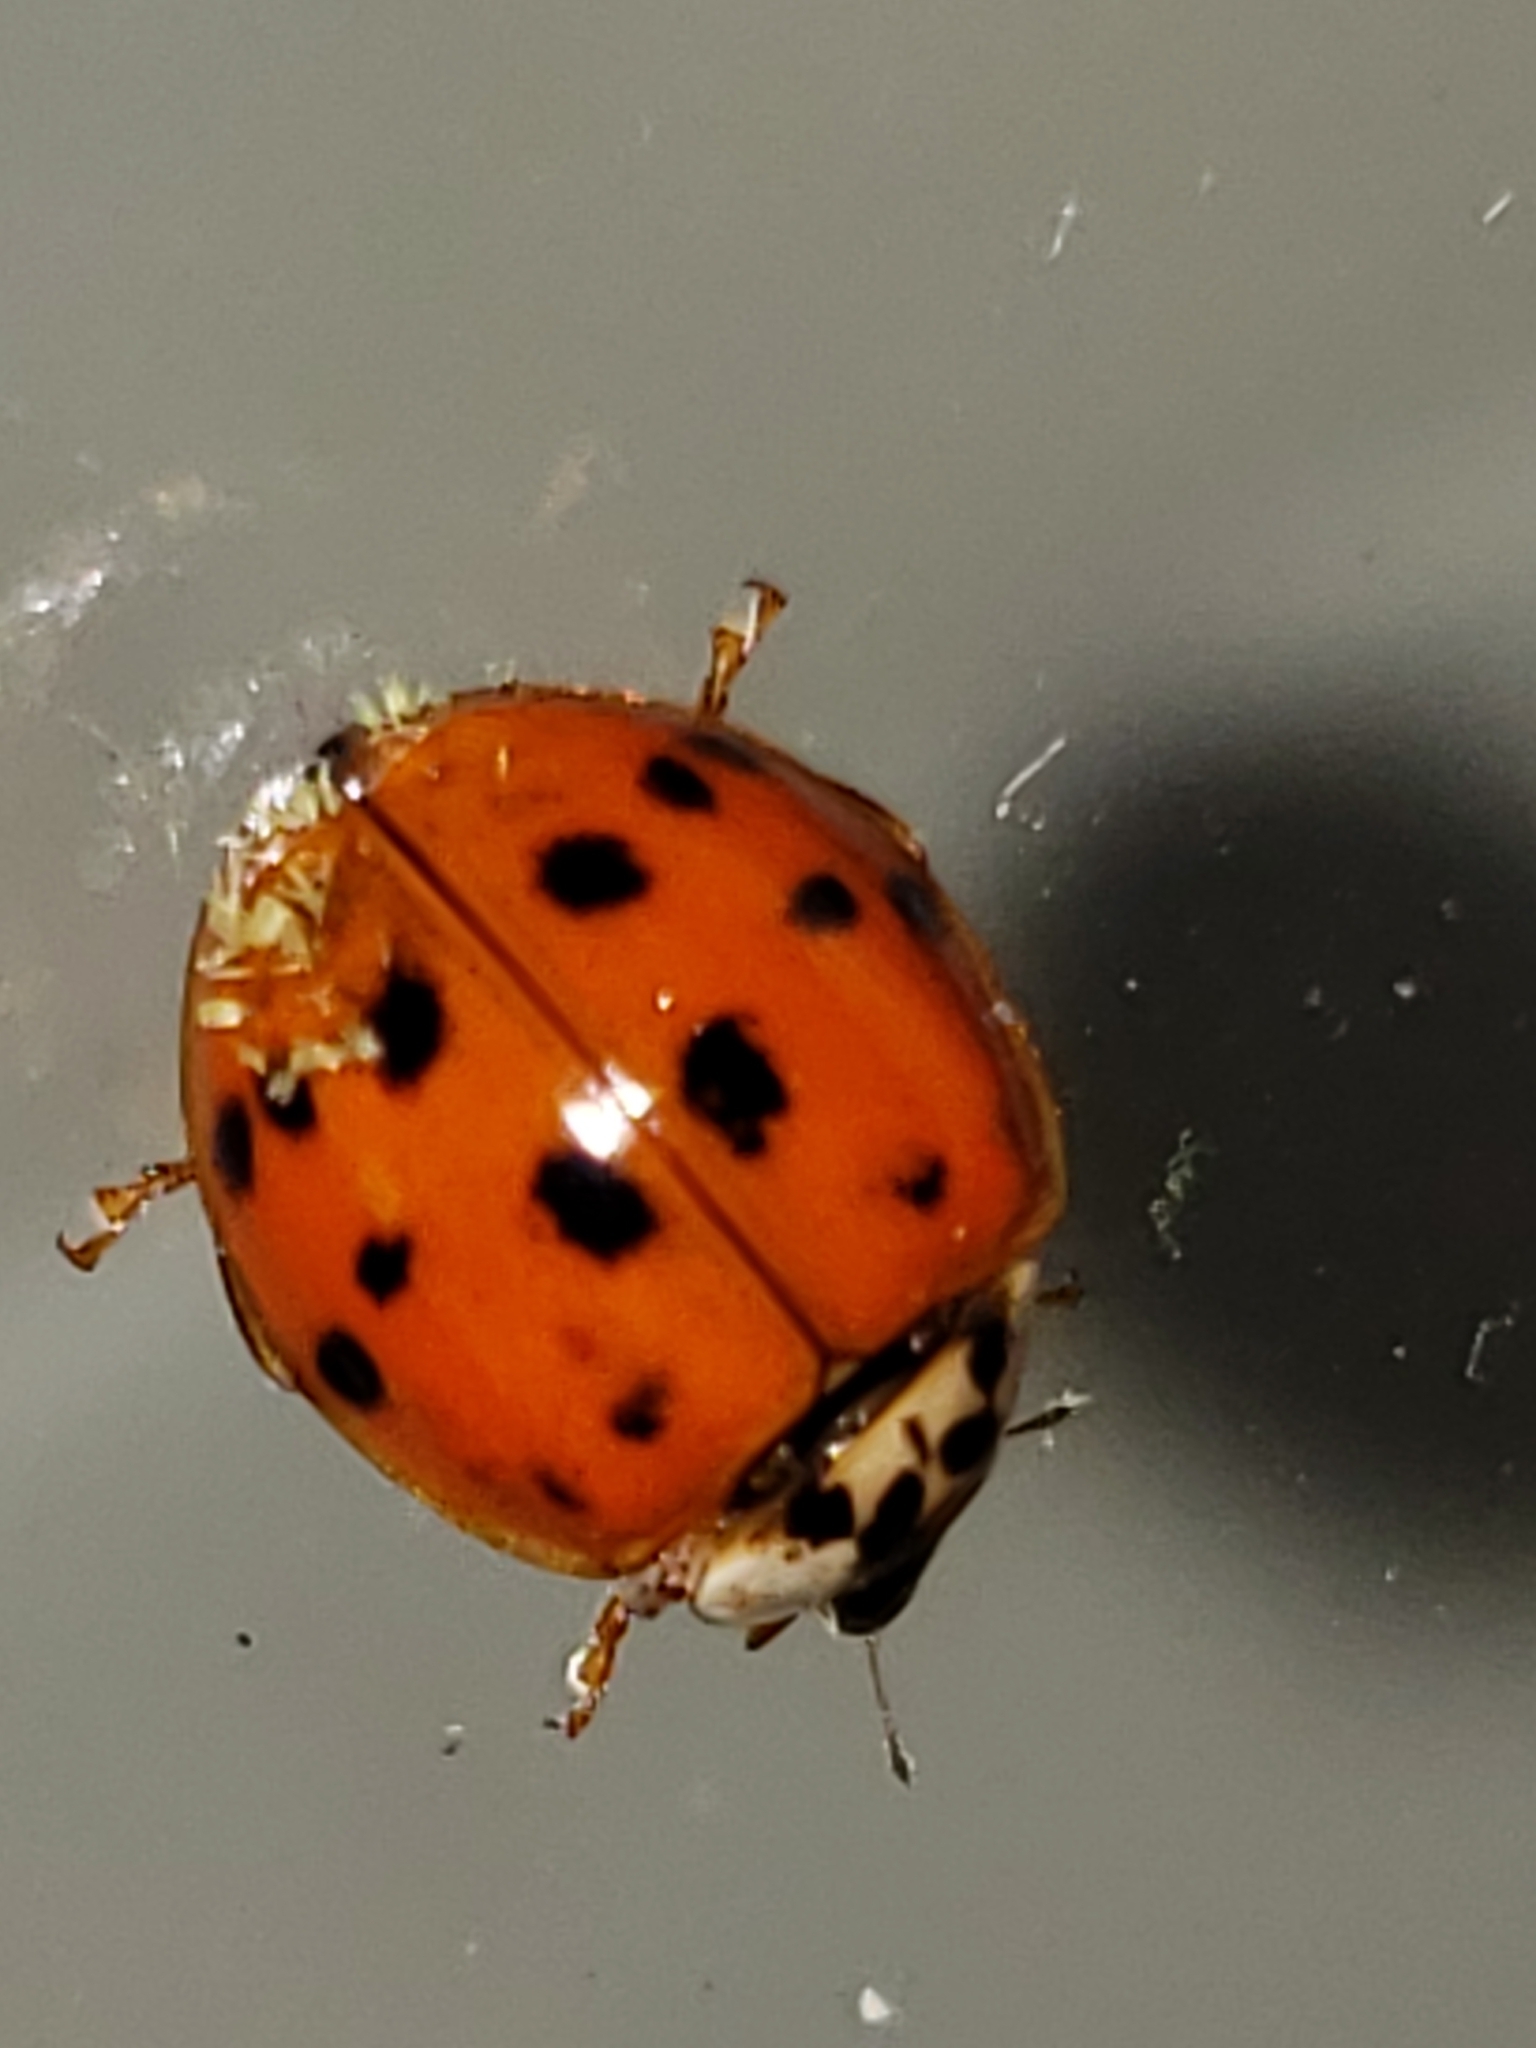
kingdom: Fungi
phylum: Ascomycota
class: Laboulbeniomycetes
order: Laboulbeniales
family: Laboulbeniaceae
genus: Hesperomyces
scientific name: Hesperomyces harmoniae
